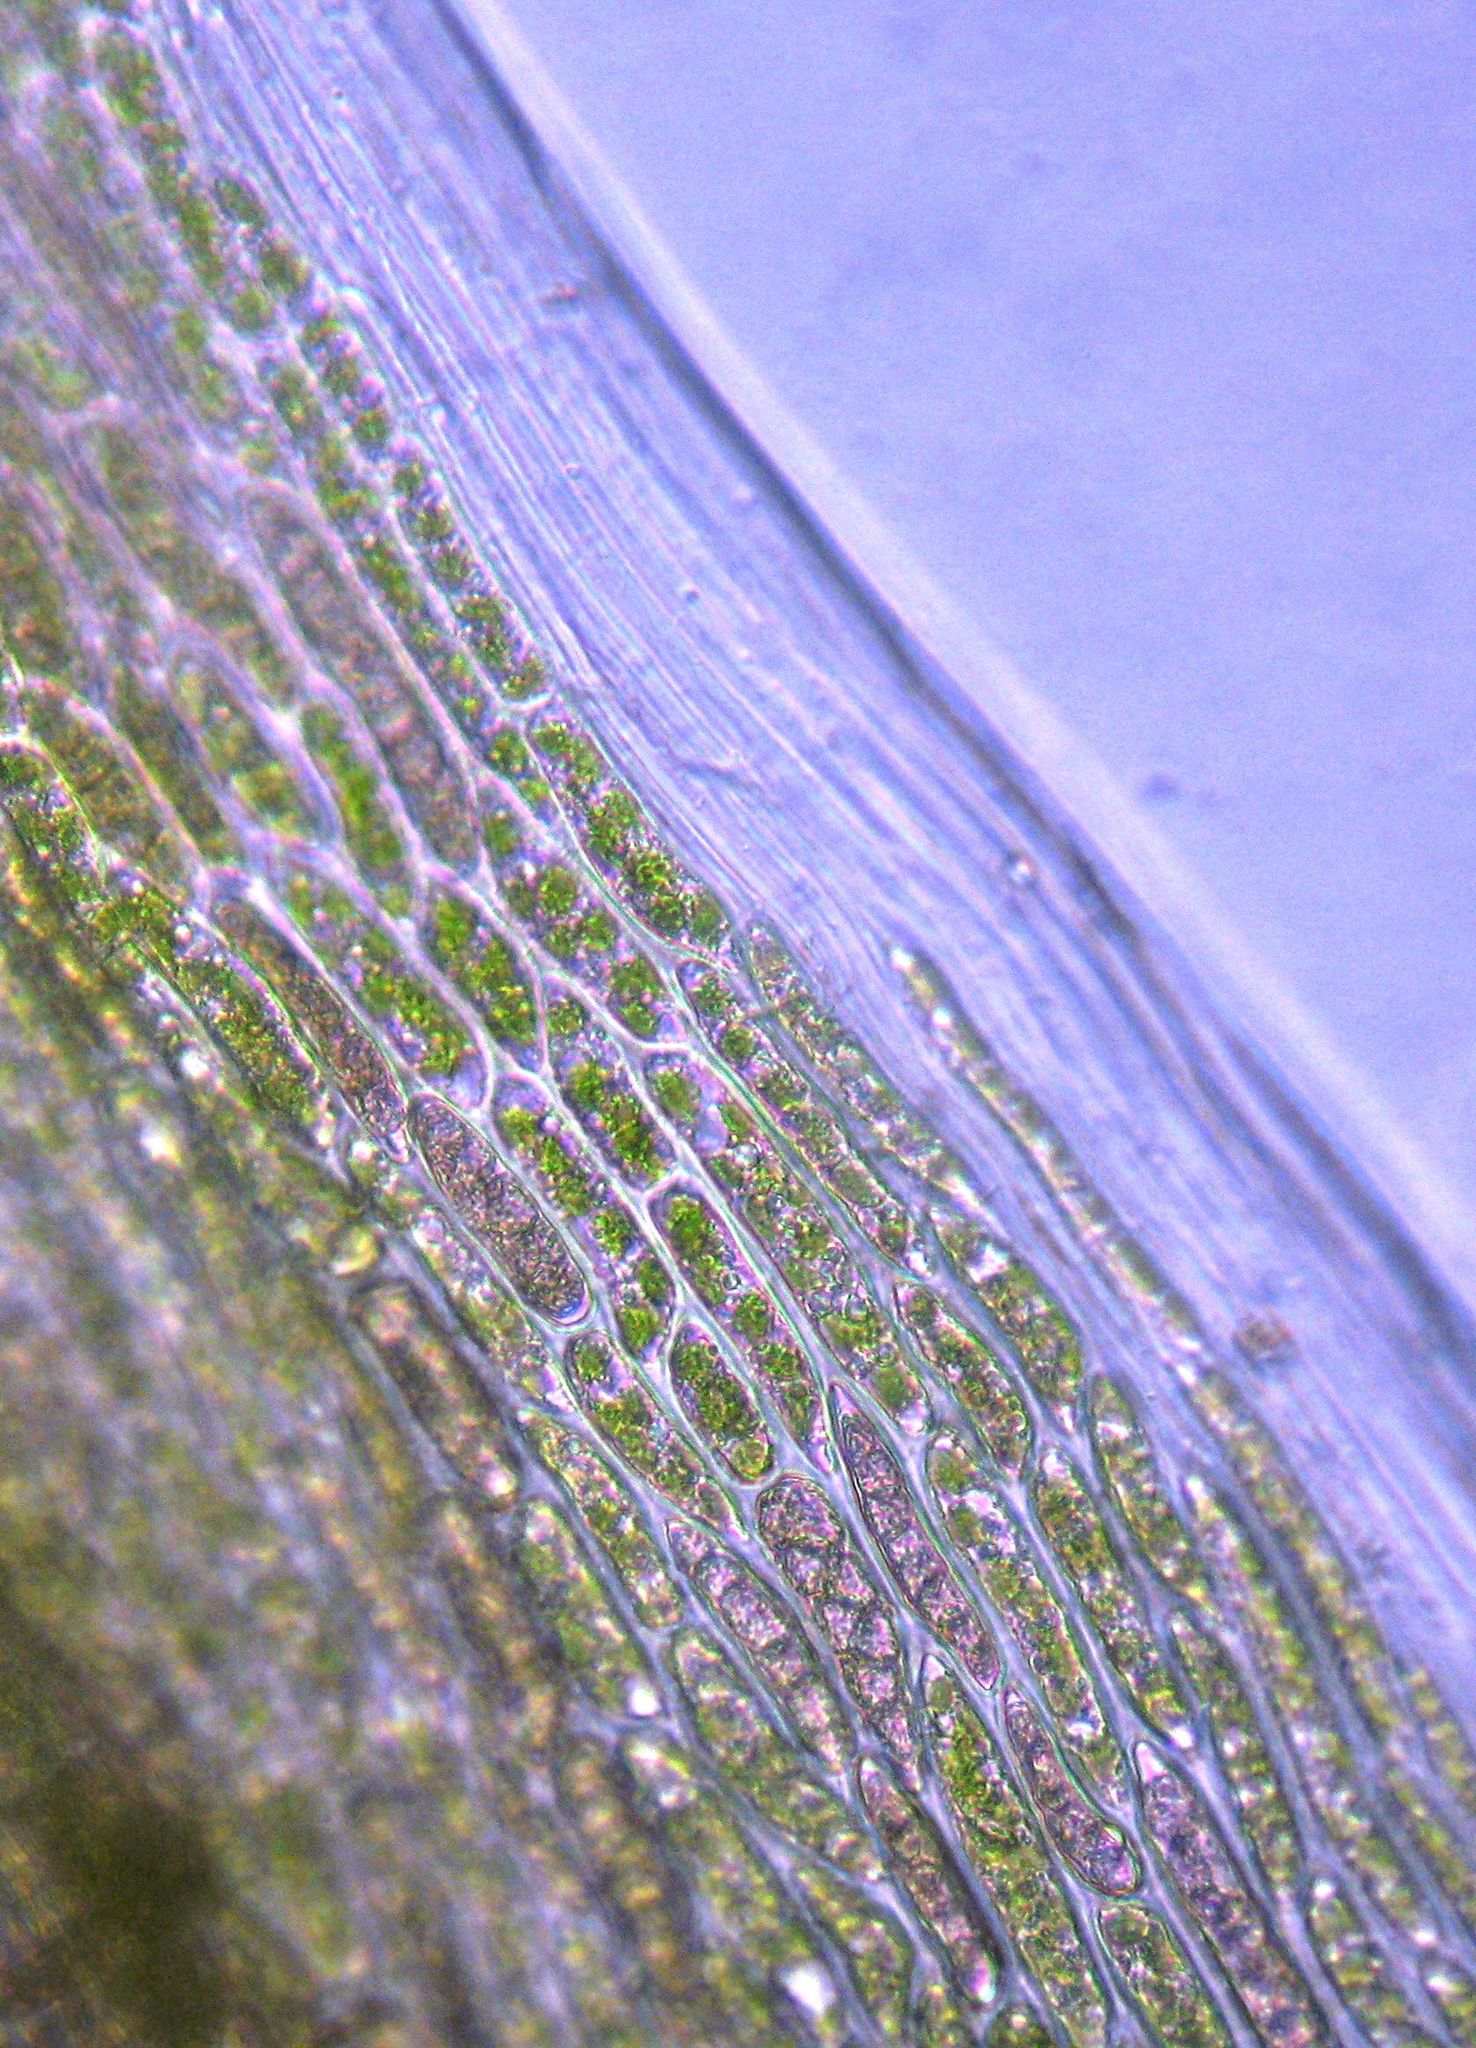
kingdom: Plantae
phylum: Bryophyta
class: Bryopsida
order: Dicranales
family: Dicranaceae
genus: Dicranoloma
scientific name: Dicranoloma dicarpon
